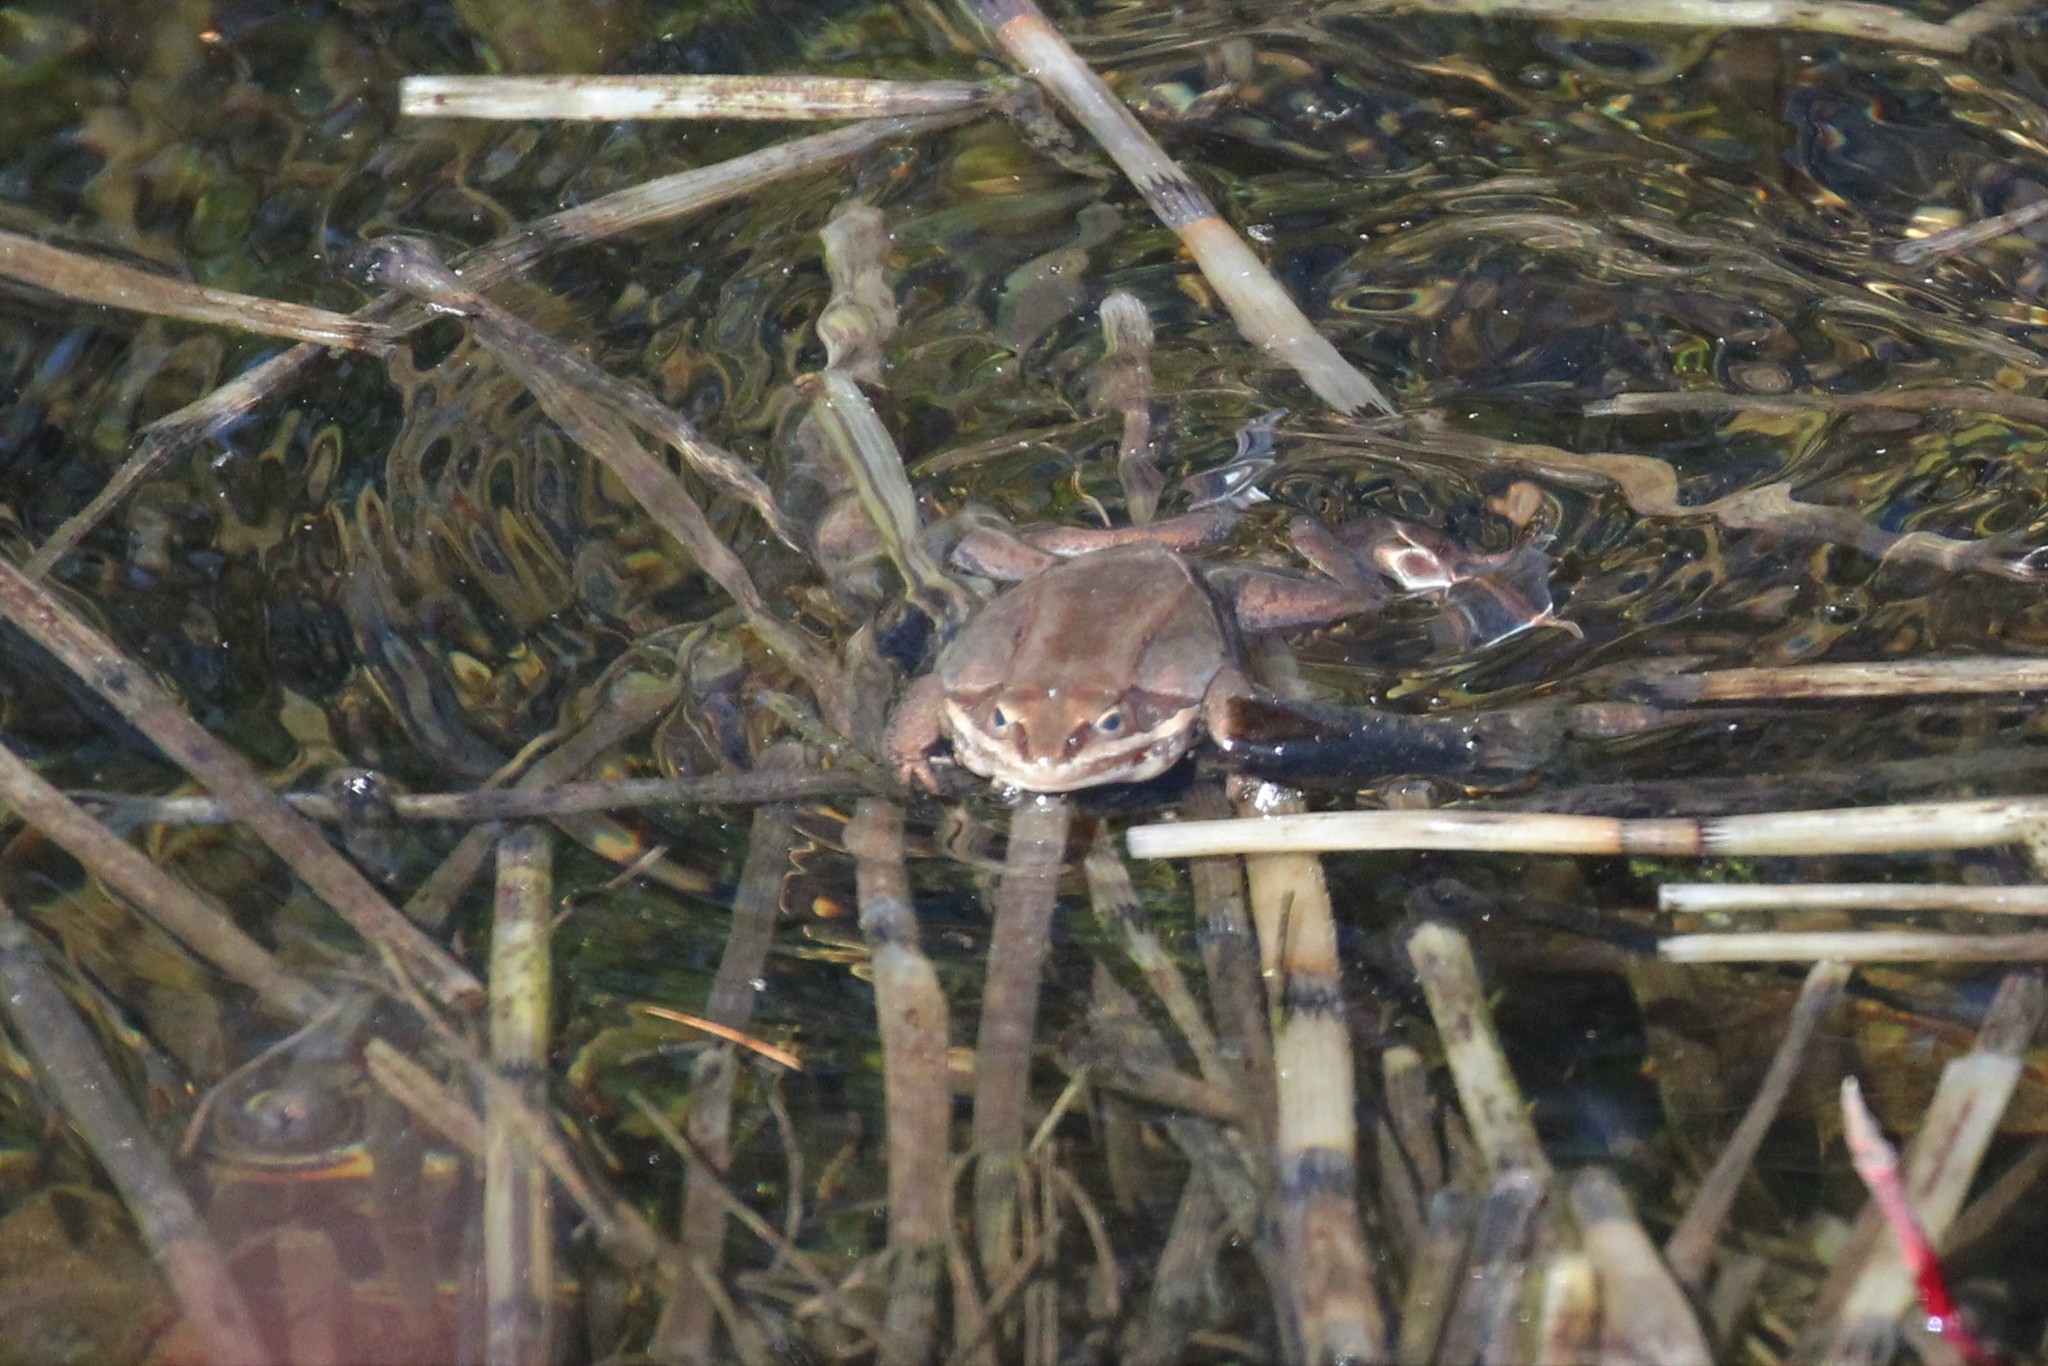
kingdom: Animalia
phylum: Chordata
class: Amphibia
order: Anura
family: Ranidae
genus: Lithobates
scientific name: Lithobates sylvaticus
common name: Wood frog
